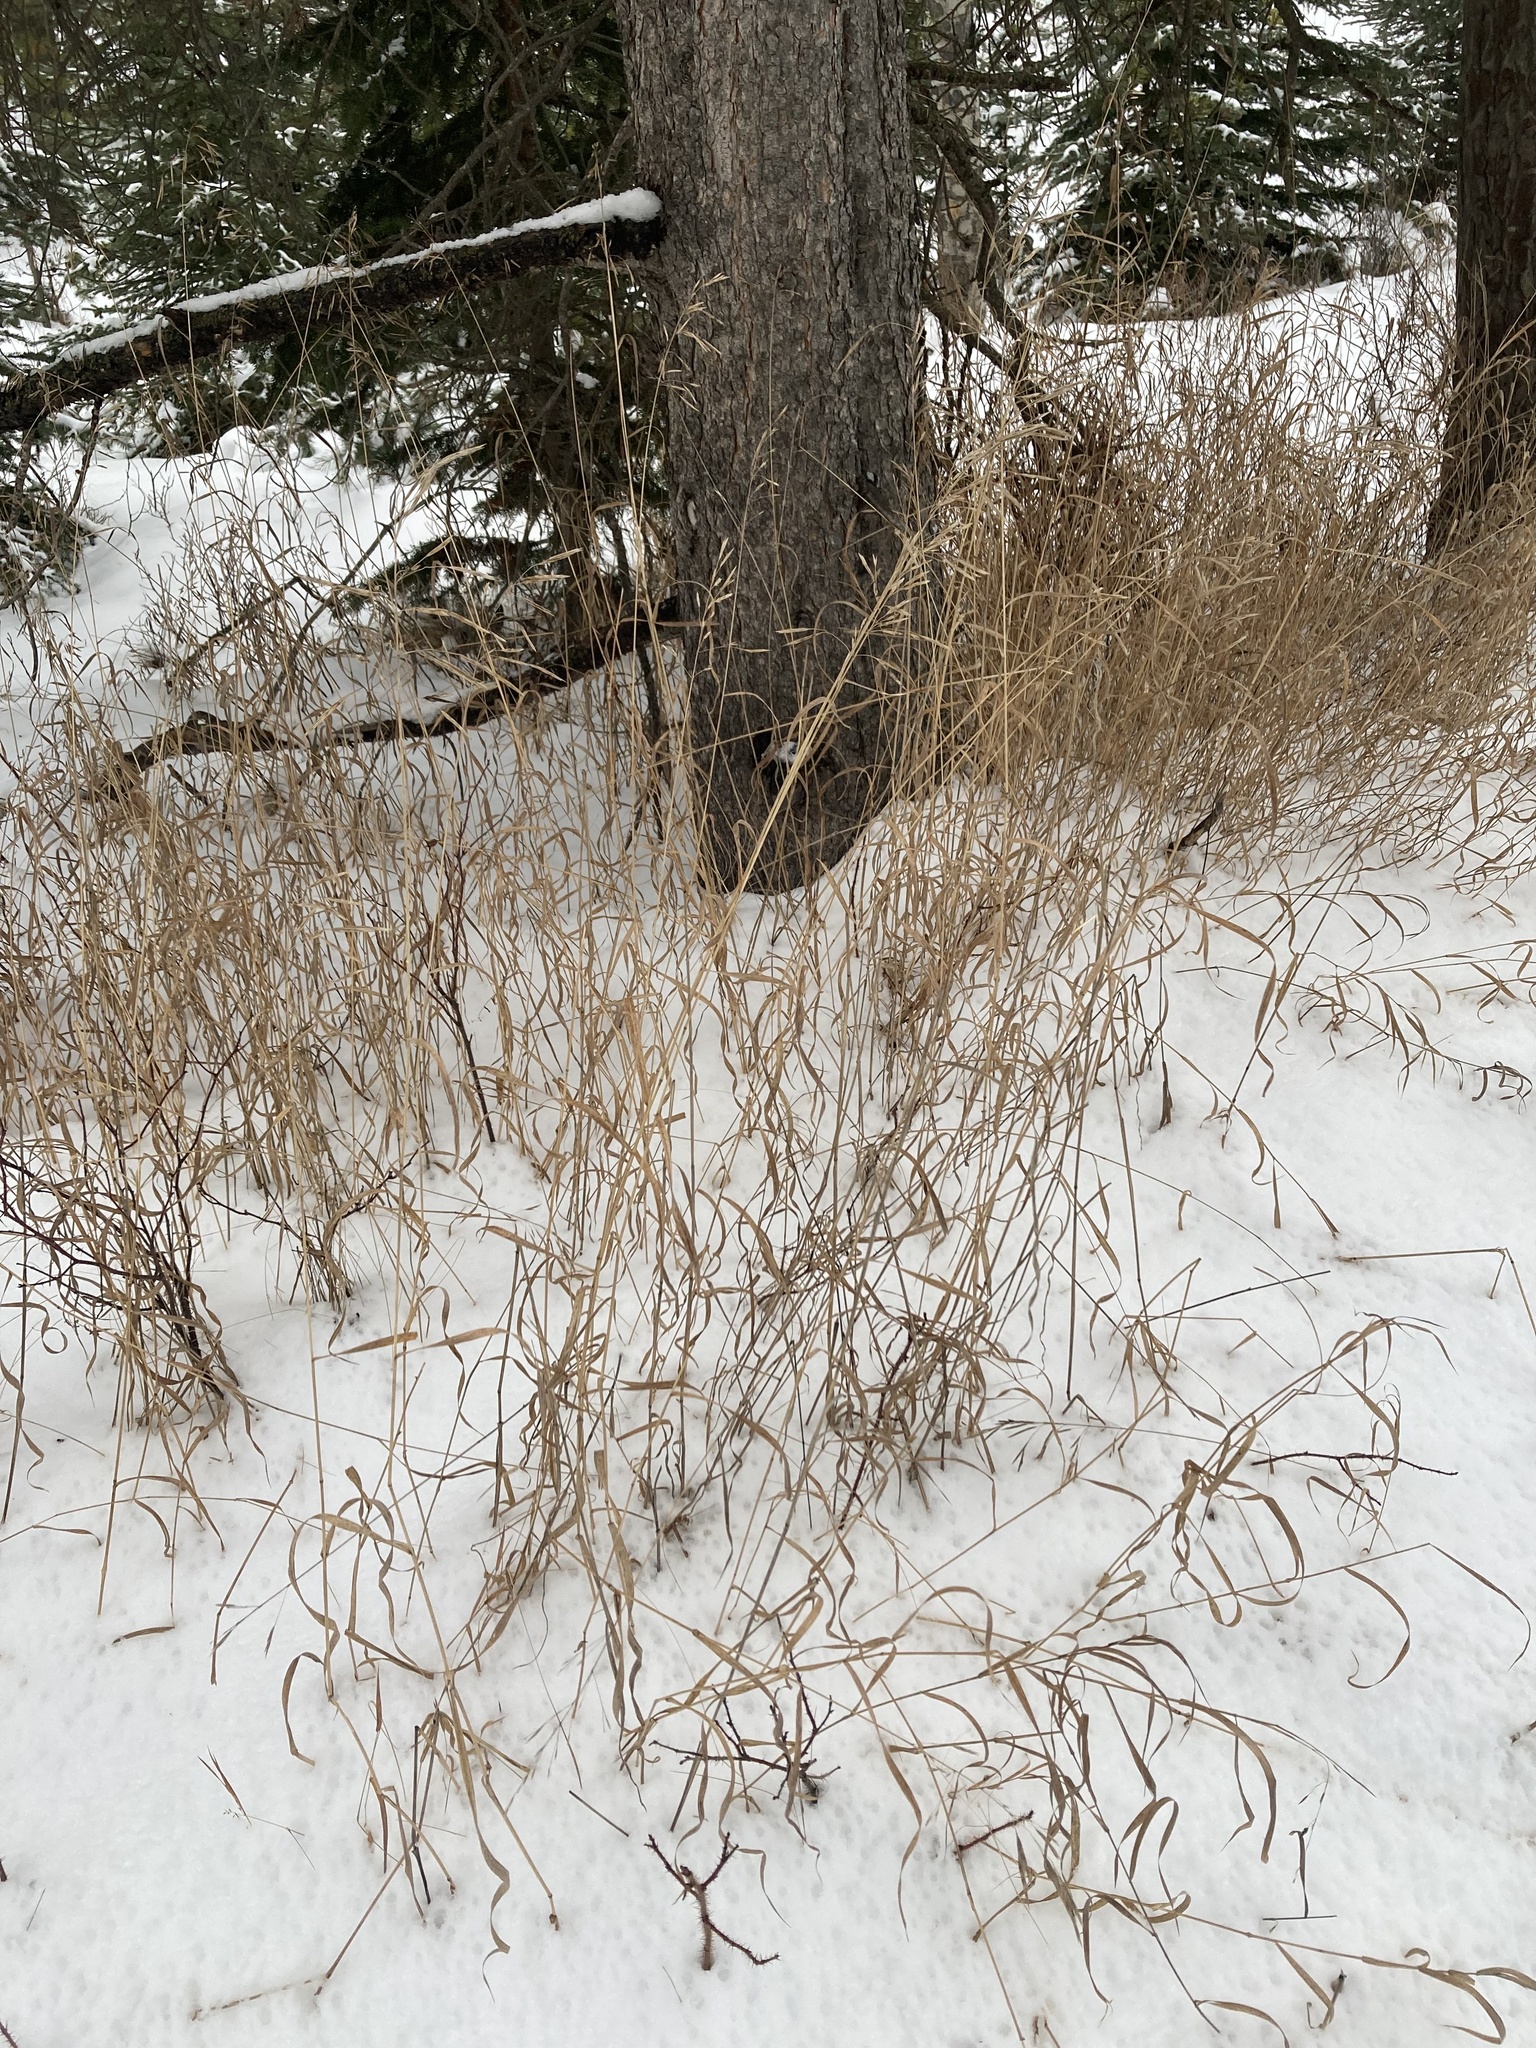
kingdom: Plantae
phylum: Tracheophyta
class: Liliopsida
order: Poales
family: Poaceae
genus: Bromus
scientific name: Bromus inermis
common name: Smooth brome
